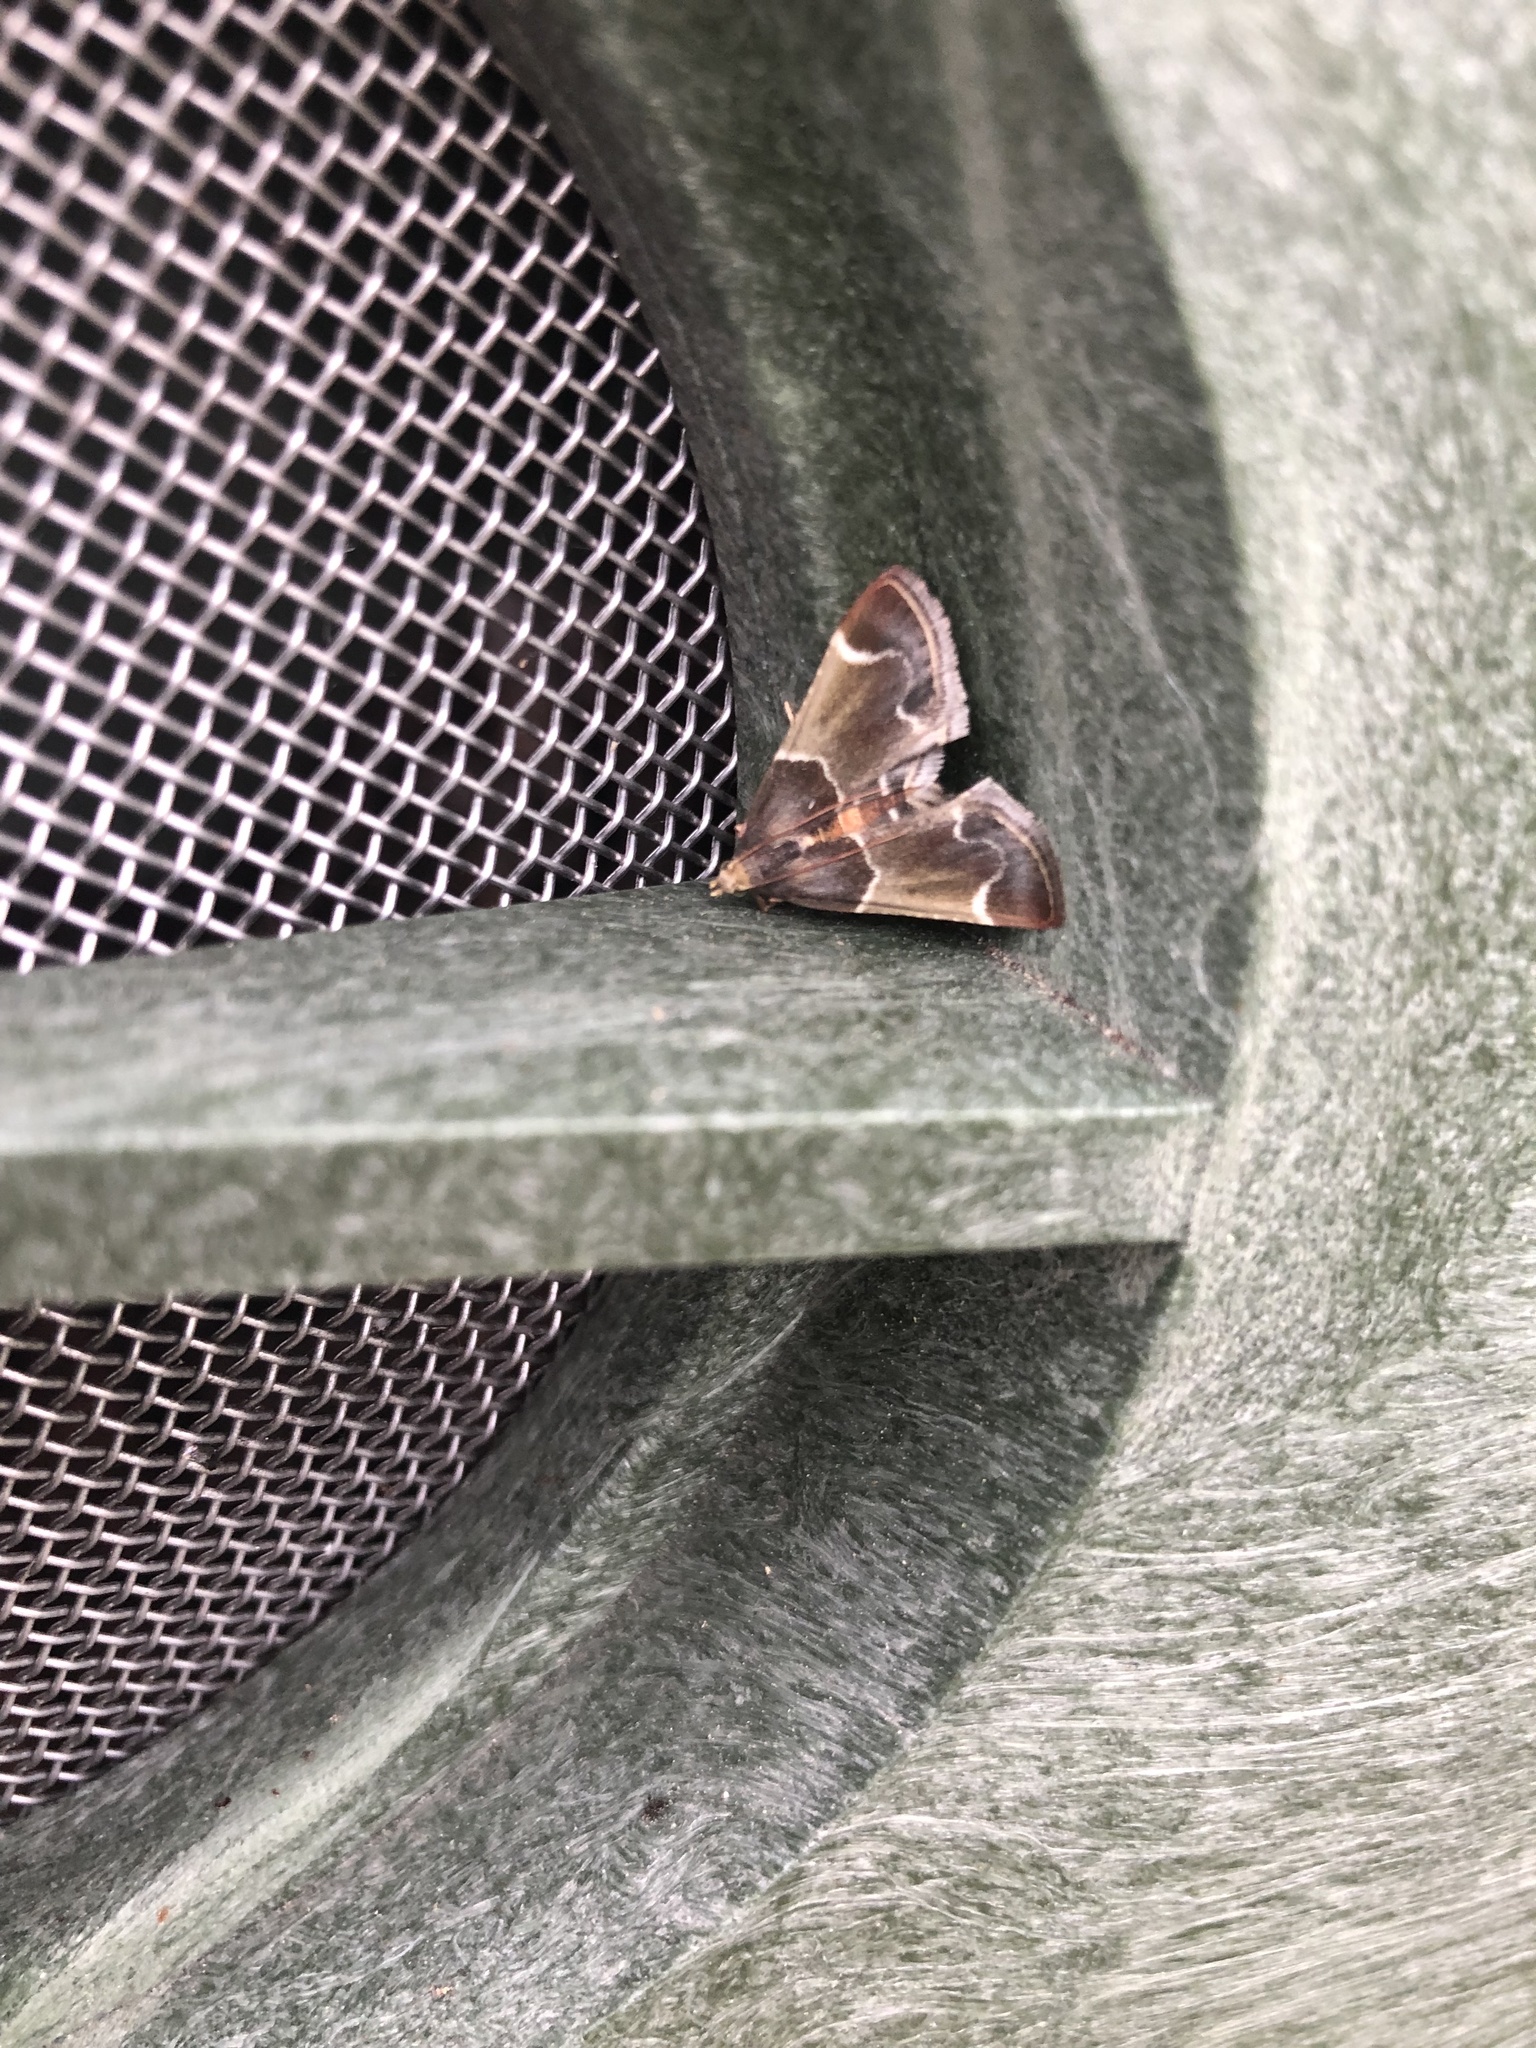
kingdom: Animalia
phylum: Arthropoda
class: Insecta
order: Lepidoptera
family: Pyralidae
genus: Pyralis
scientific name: Pyralis farinalis
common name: Meal moth
